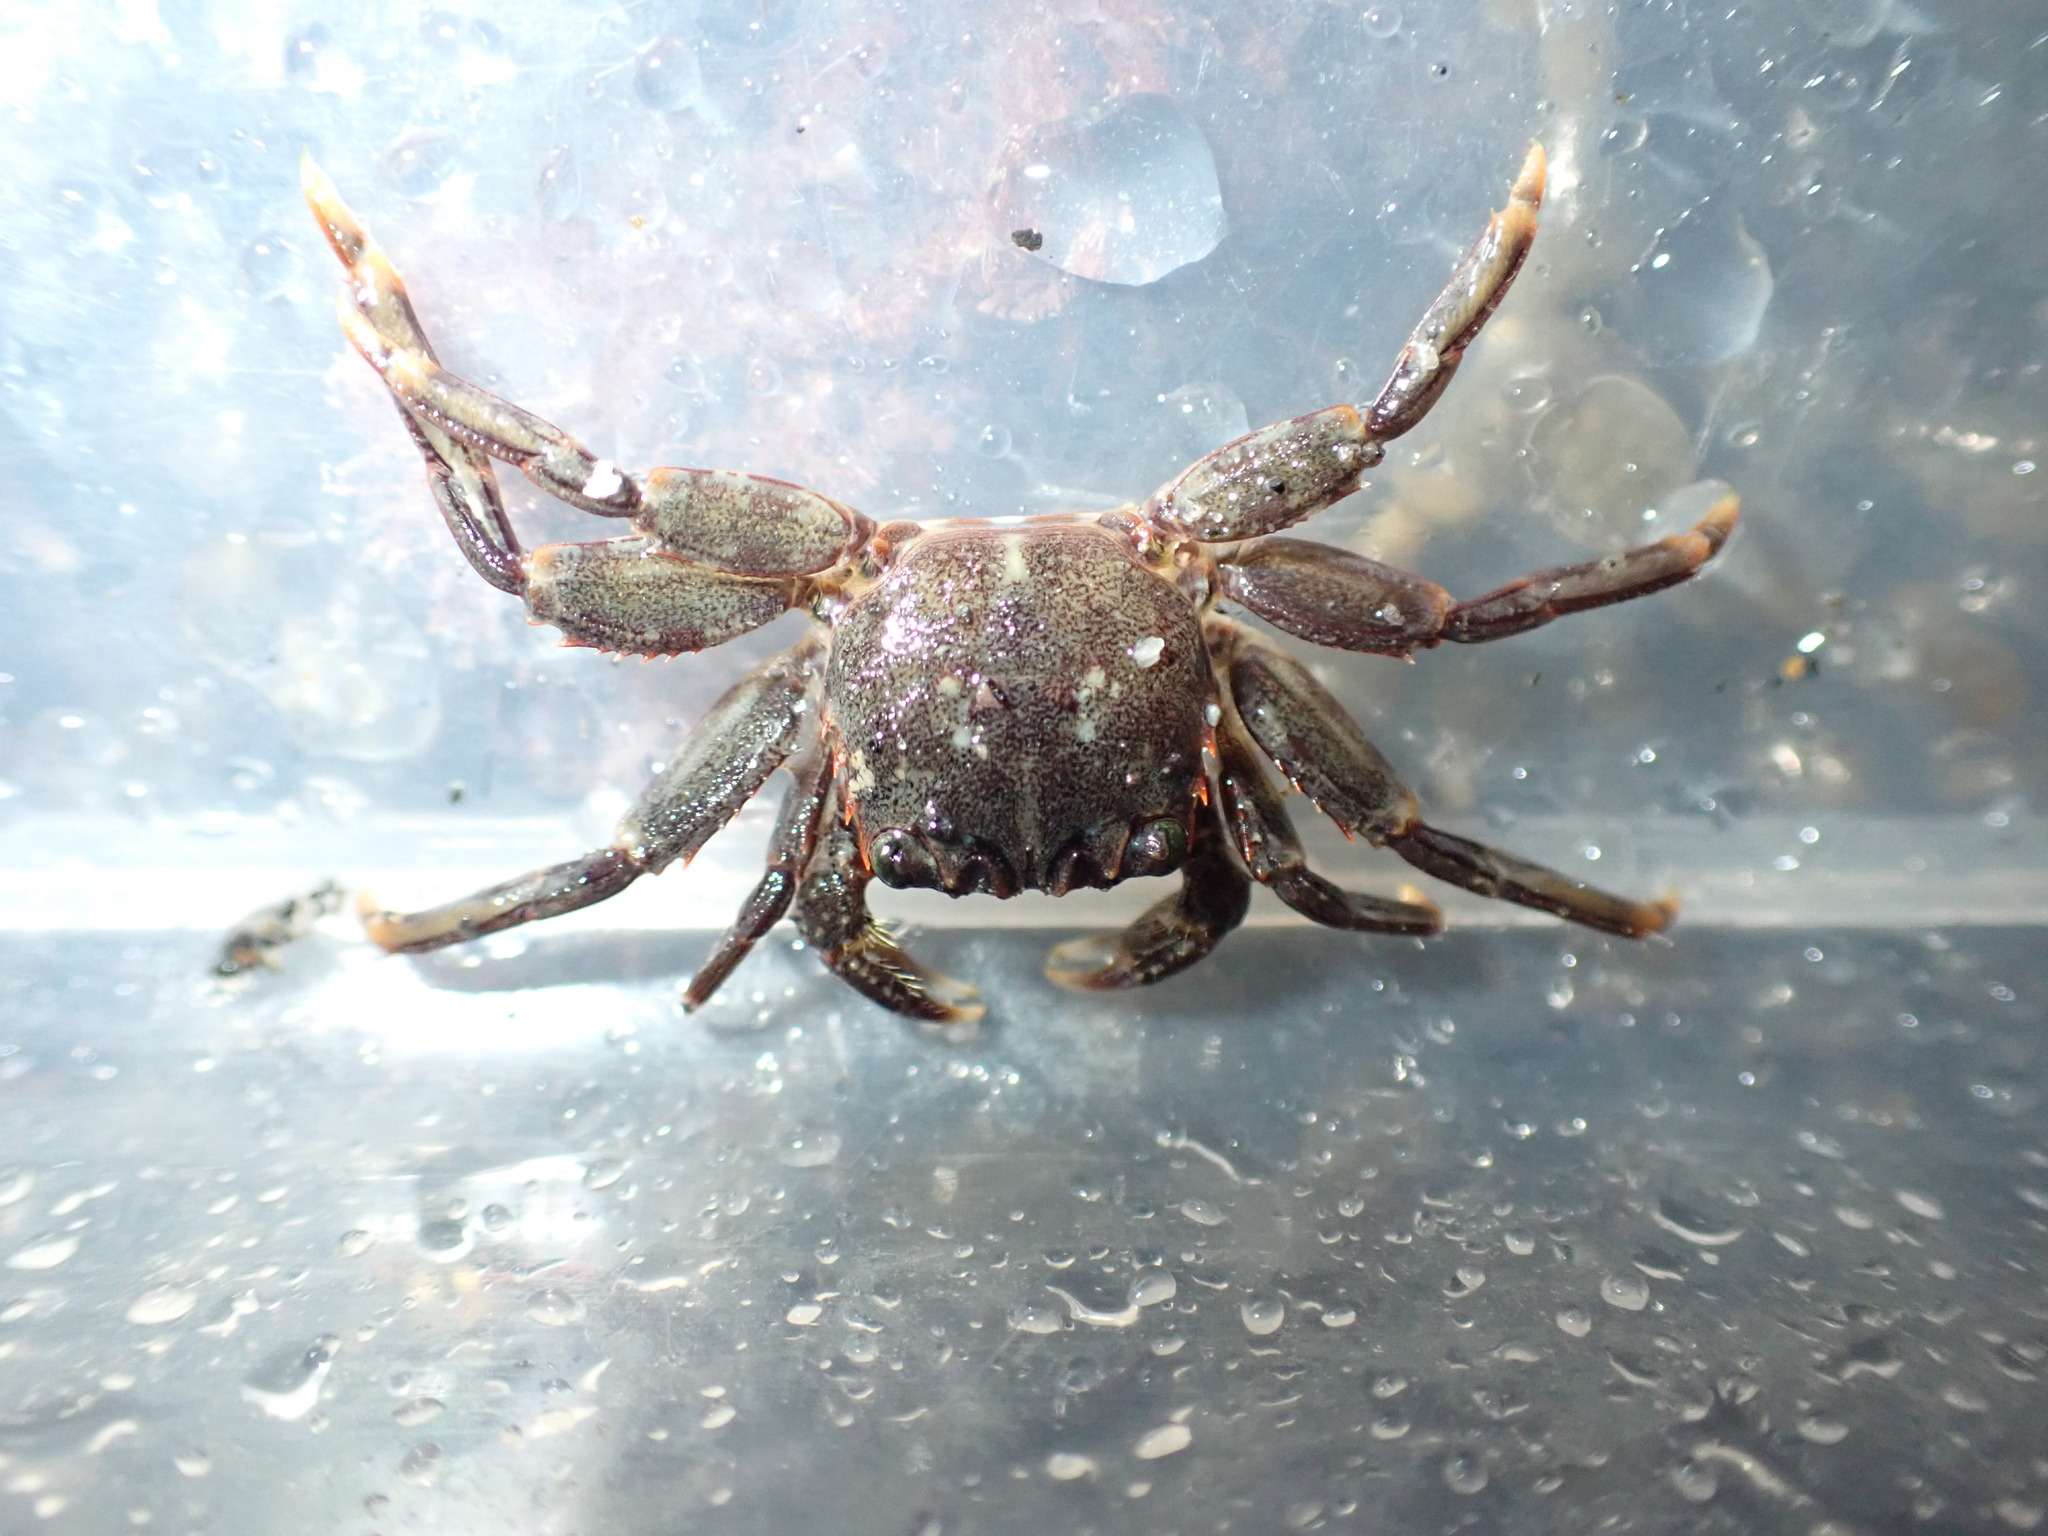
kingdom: Animalia
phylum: Arthropoda
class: Malacostraca
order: Decapoda
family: Plagusiidae
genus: Guinusia
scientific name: Guinusia chabrus
